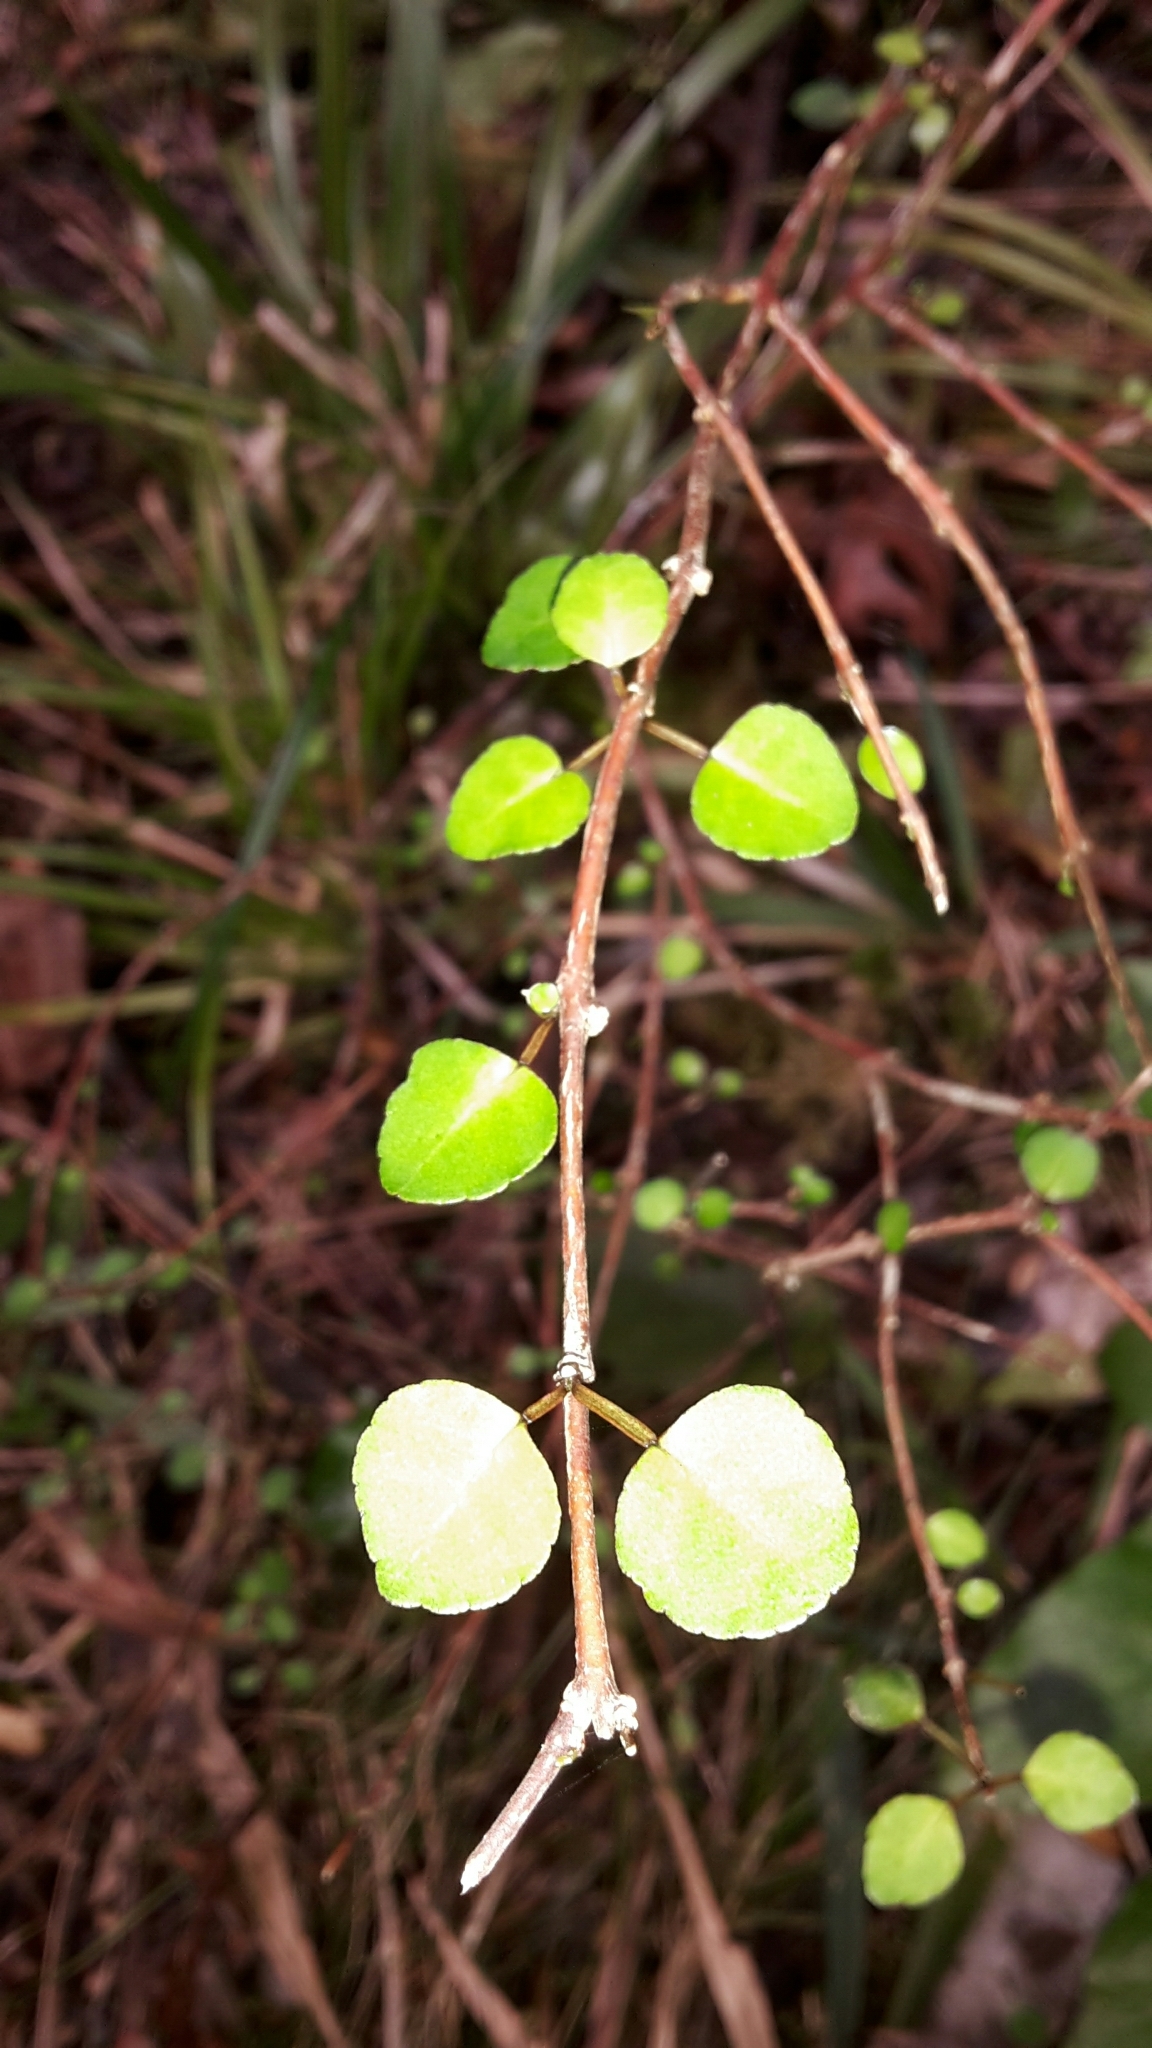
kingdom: Plantae
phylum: Tracheophyta
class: Magnoliopsida
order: Sapindales
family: Rutaceae
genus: Melicope
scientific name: Melicope simplex
